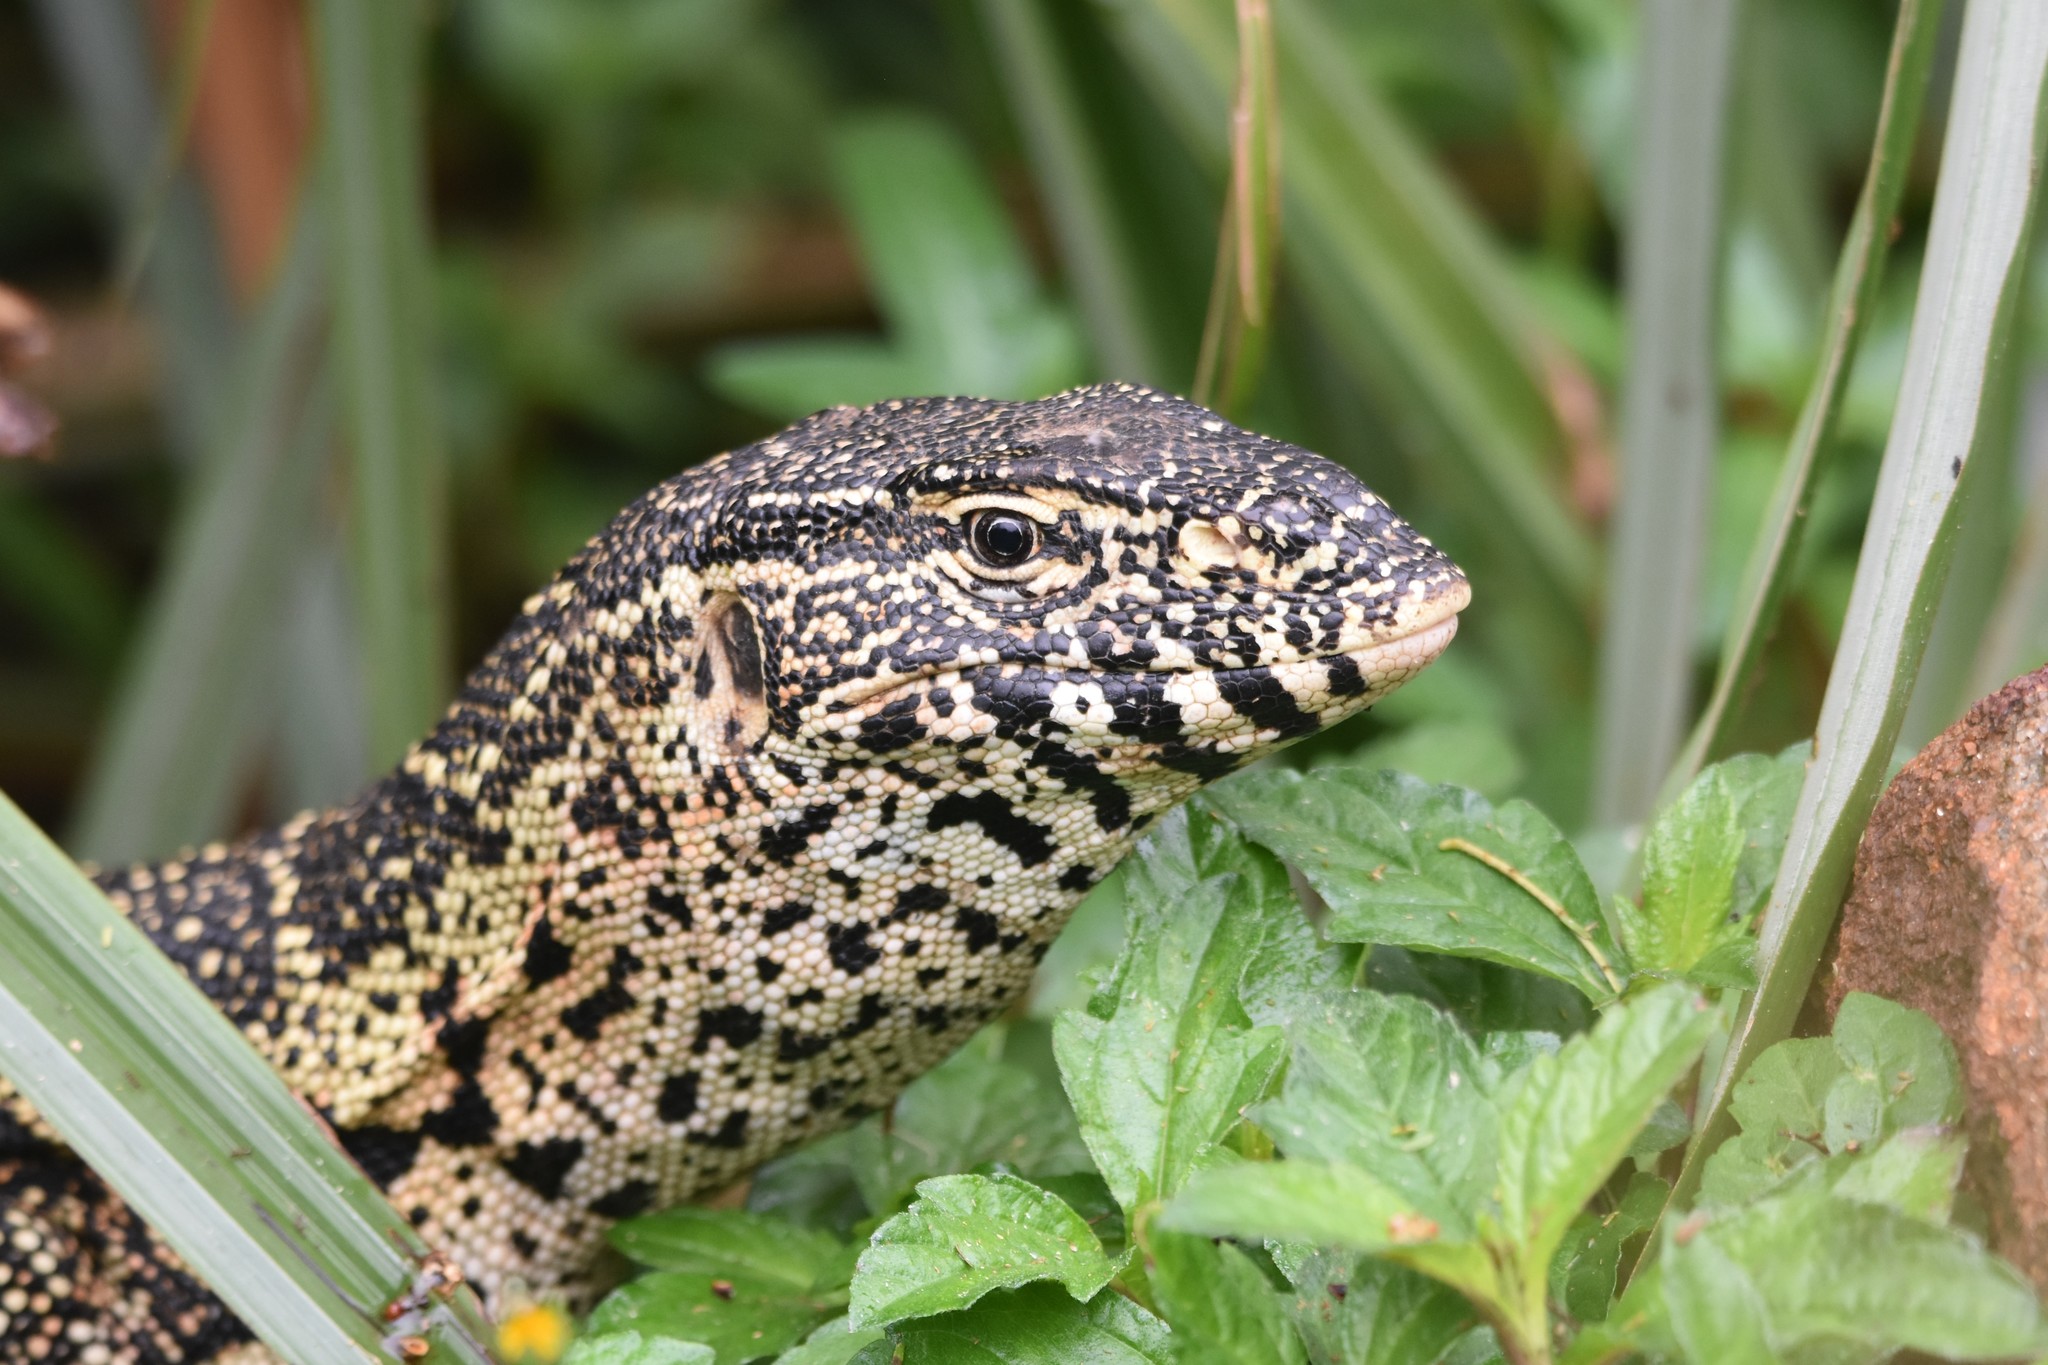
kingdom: Animalia
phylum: Chordata
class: Squamata
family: Varanidae
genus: Varanus
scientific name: Varanus niloticus
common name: Nile monitor
